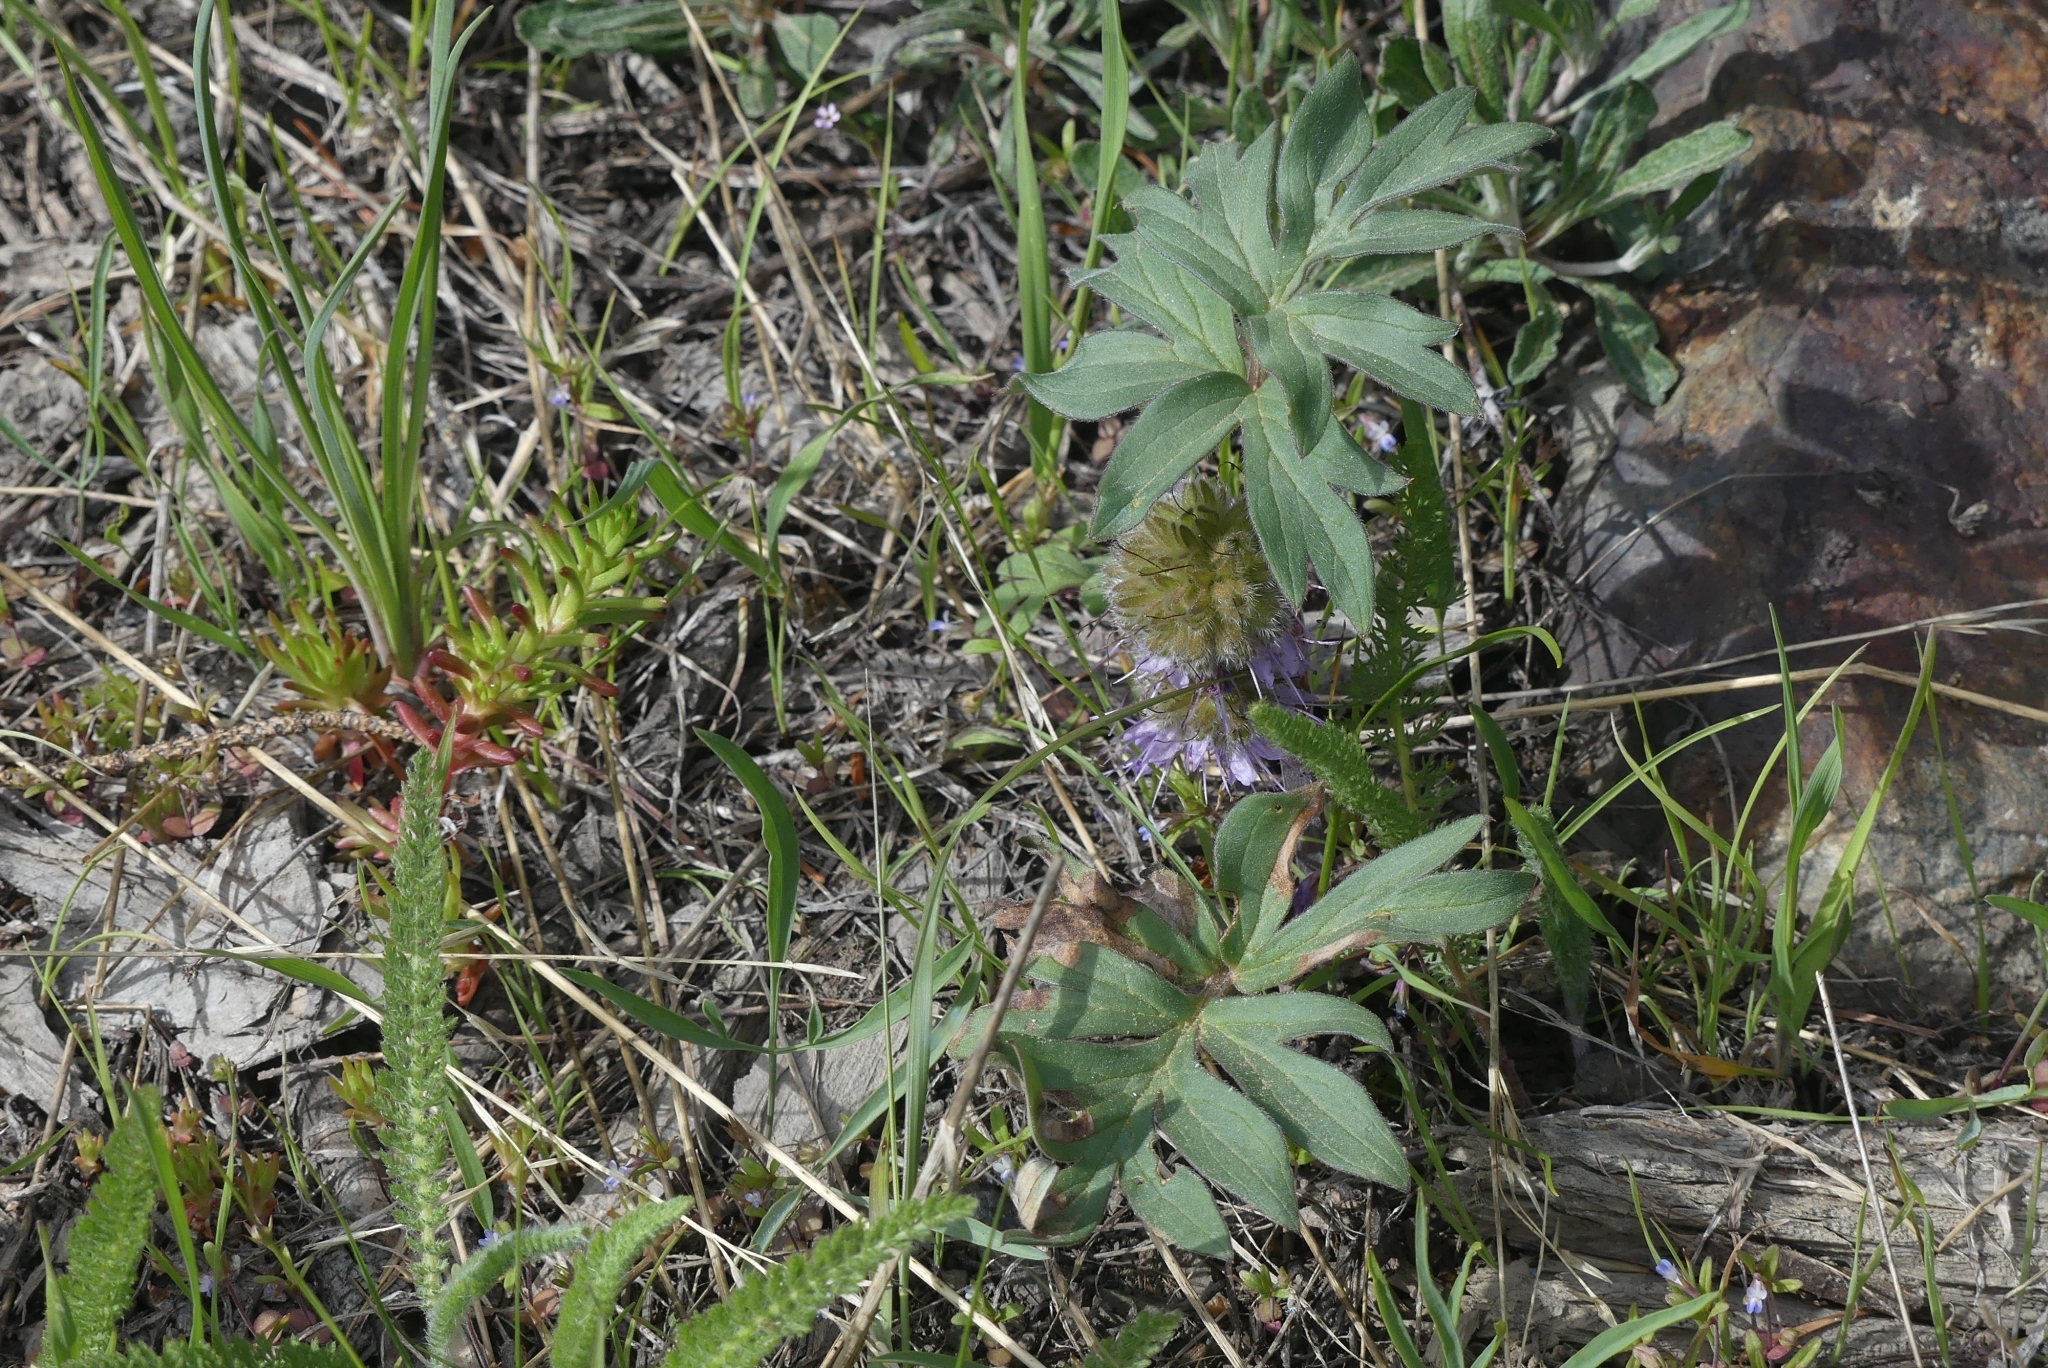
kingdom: Plantae
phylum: Tracheophyta
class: Magnoliopsida
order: Boraginales
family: Hydrophyllaceae
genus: Hydrophyllum
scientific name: Hydrophyllum capitatum
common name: Woollen-breeches
